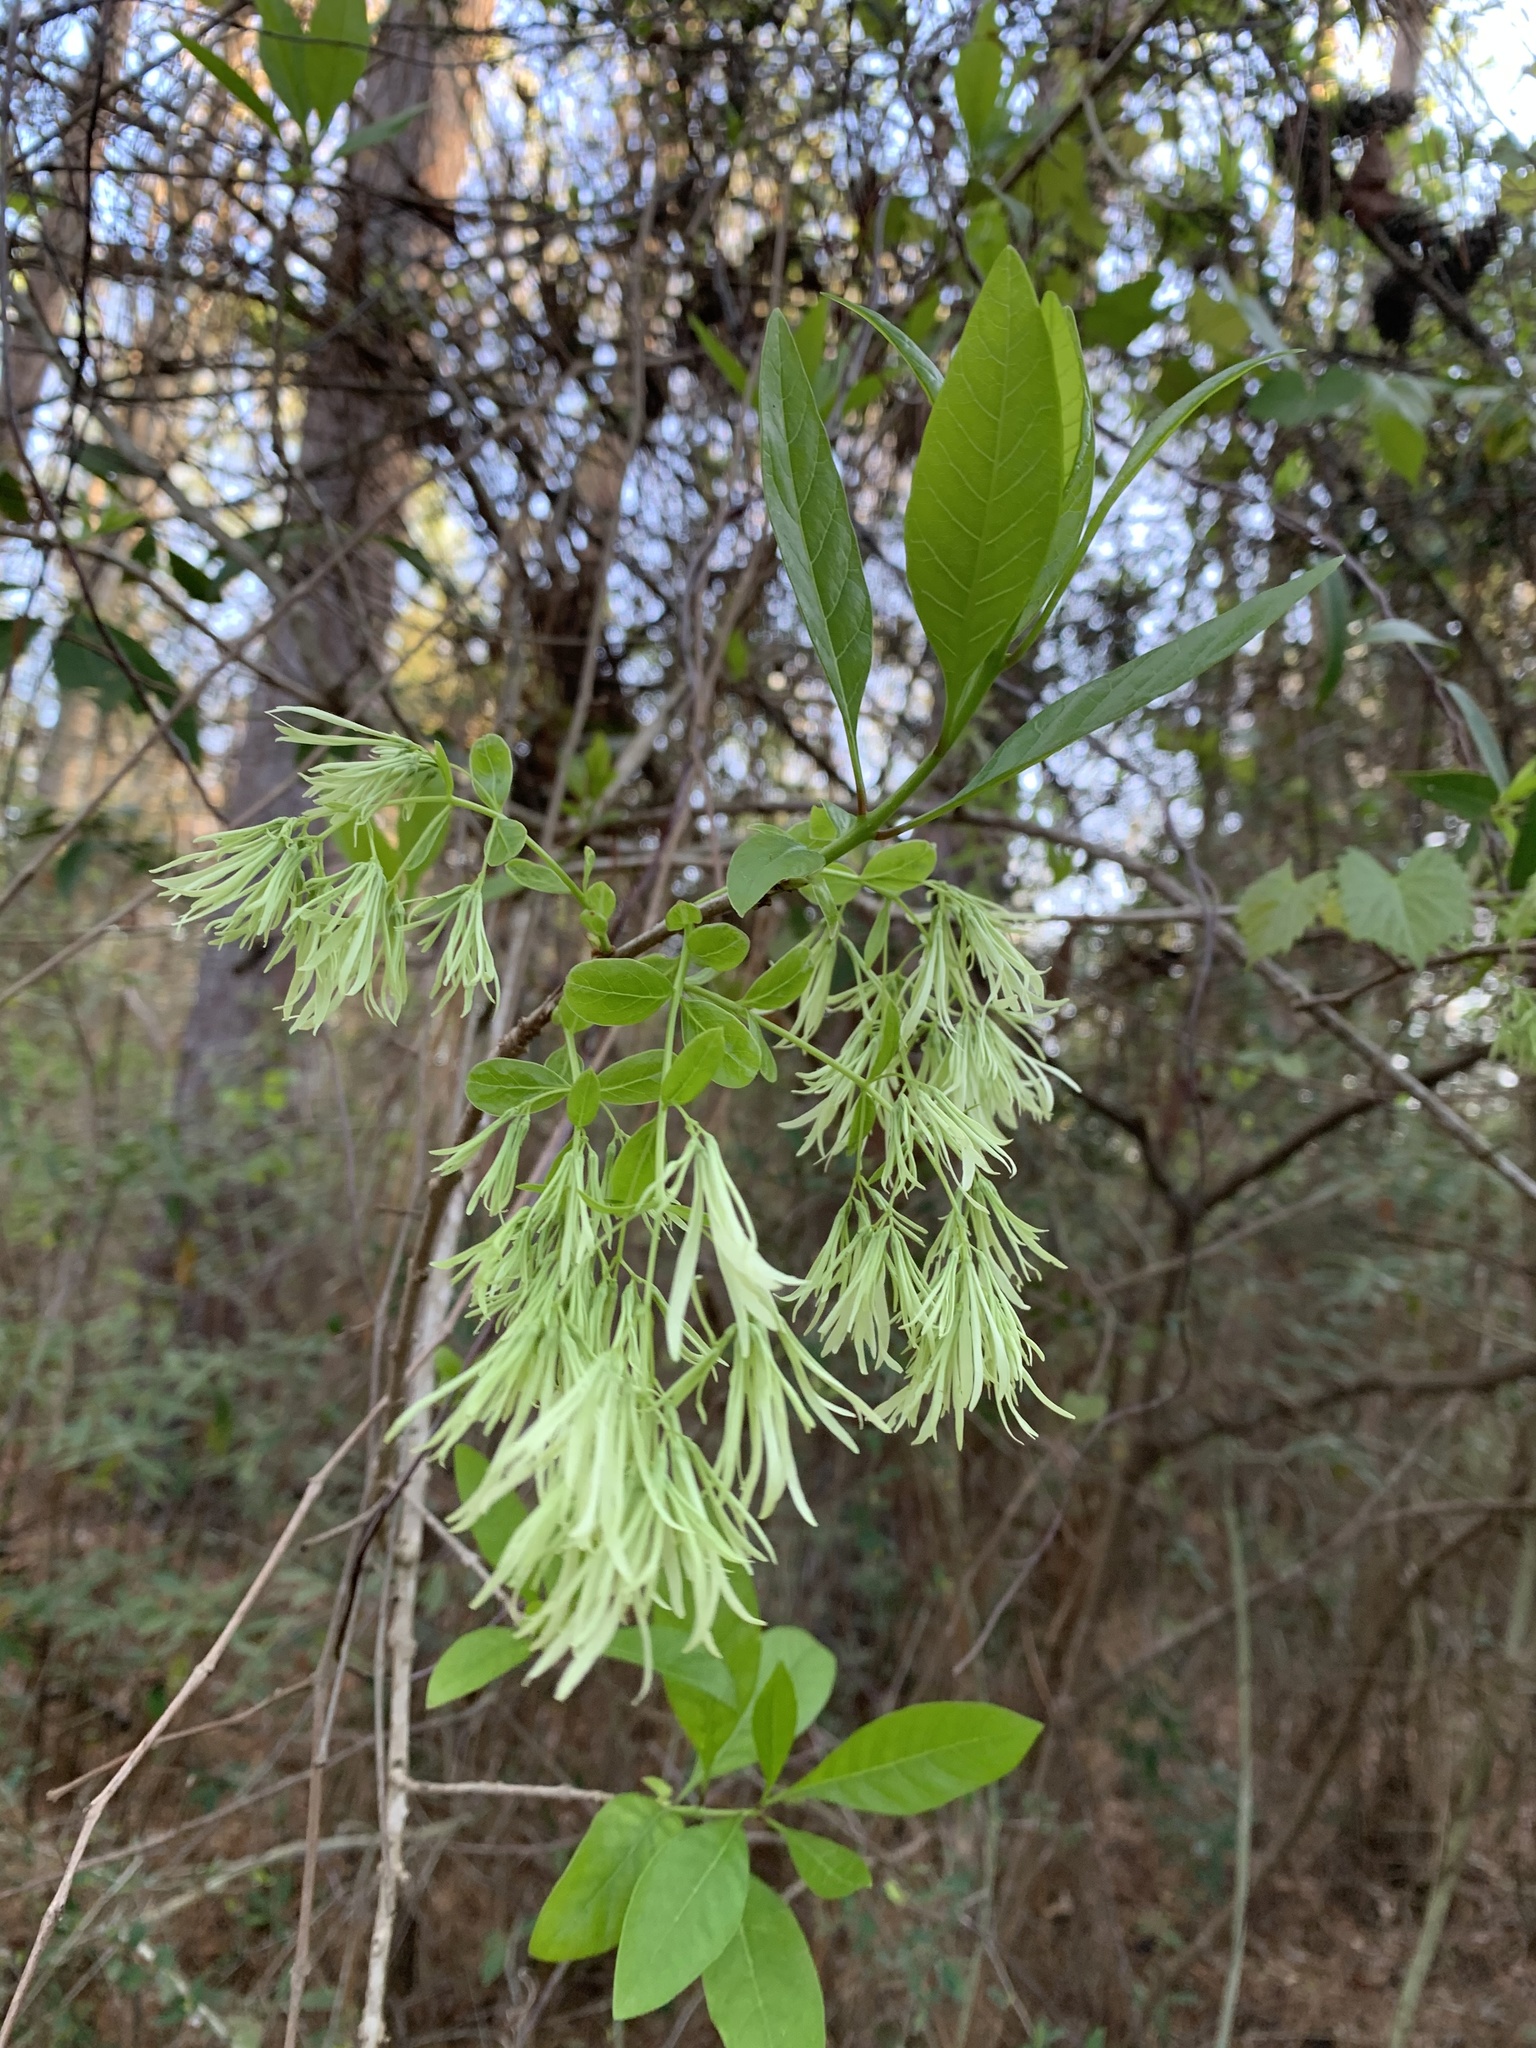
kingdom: Plantae
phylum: Tracheophyta
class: Magnoliopsida
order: Lamiales
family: Oleaceae
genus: Chionanthus
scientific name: Chionanthus virginicus
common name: American fringetree
